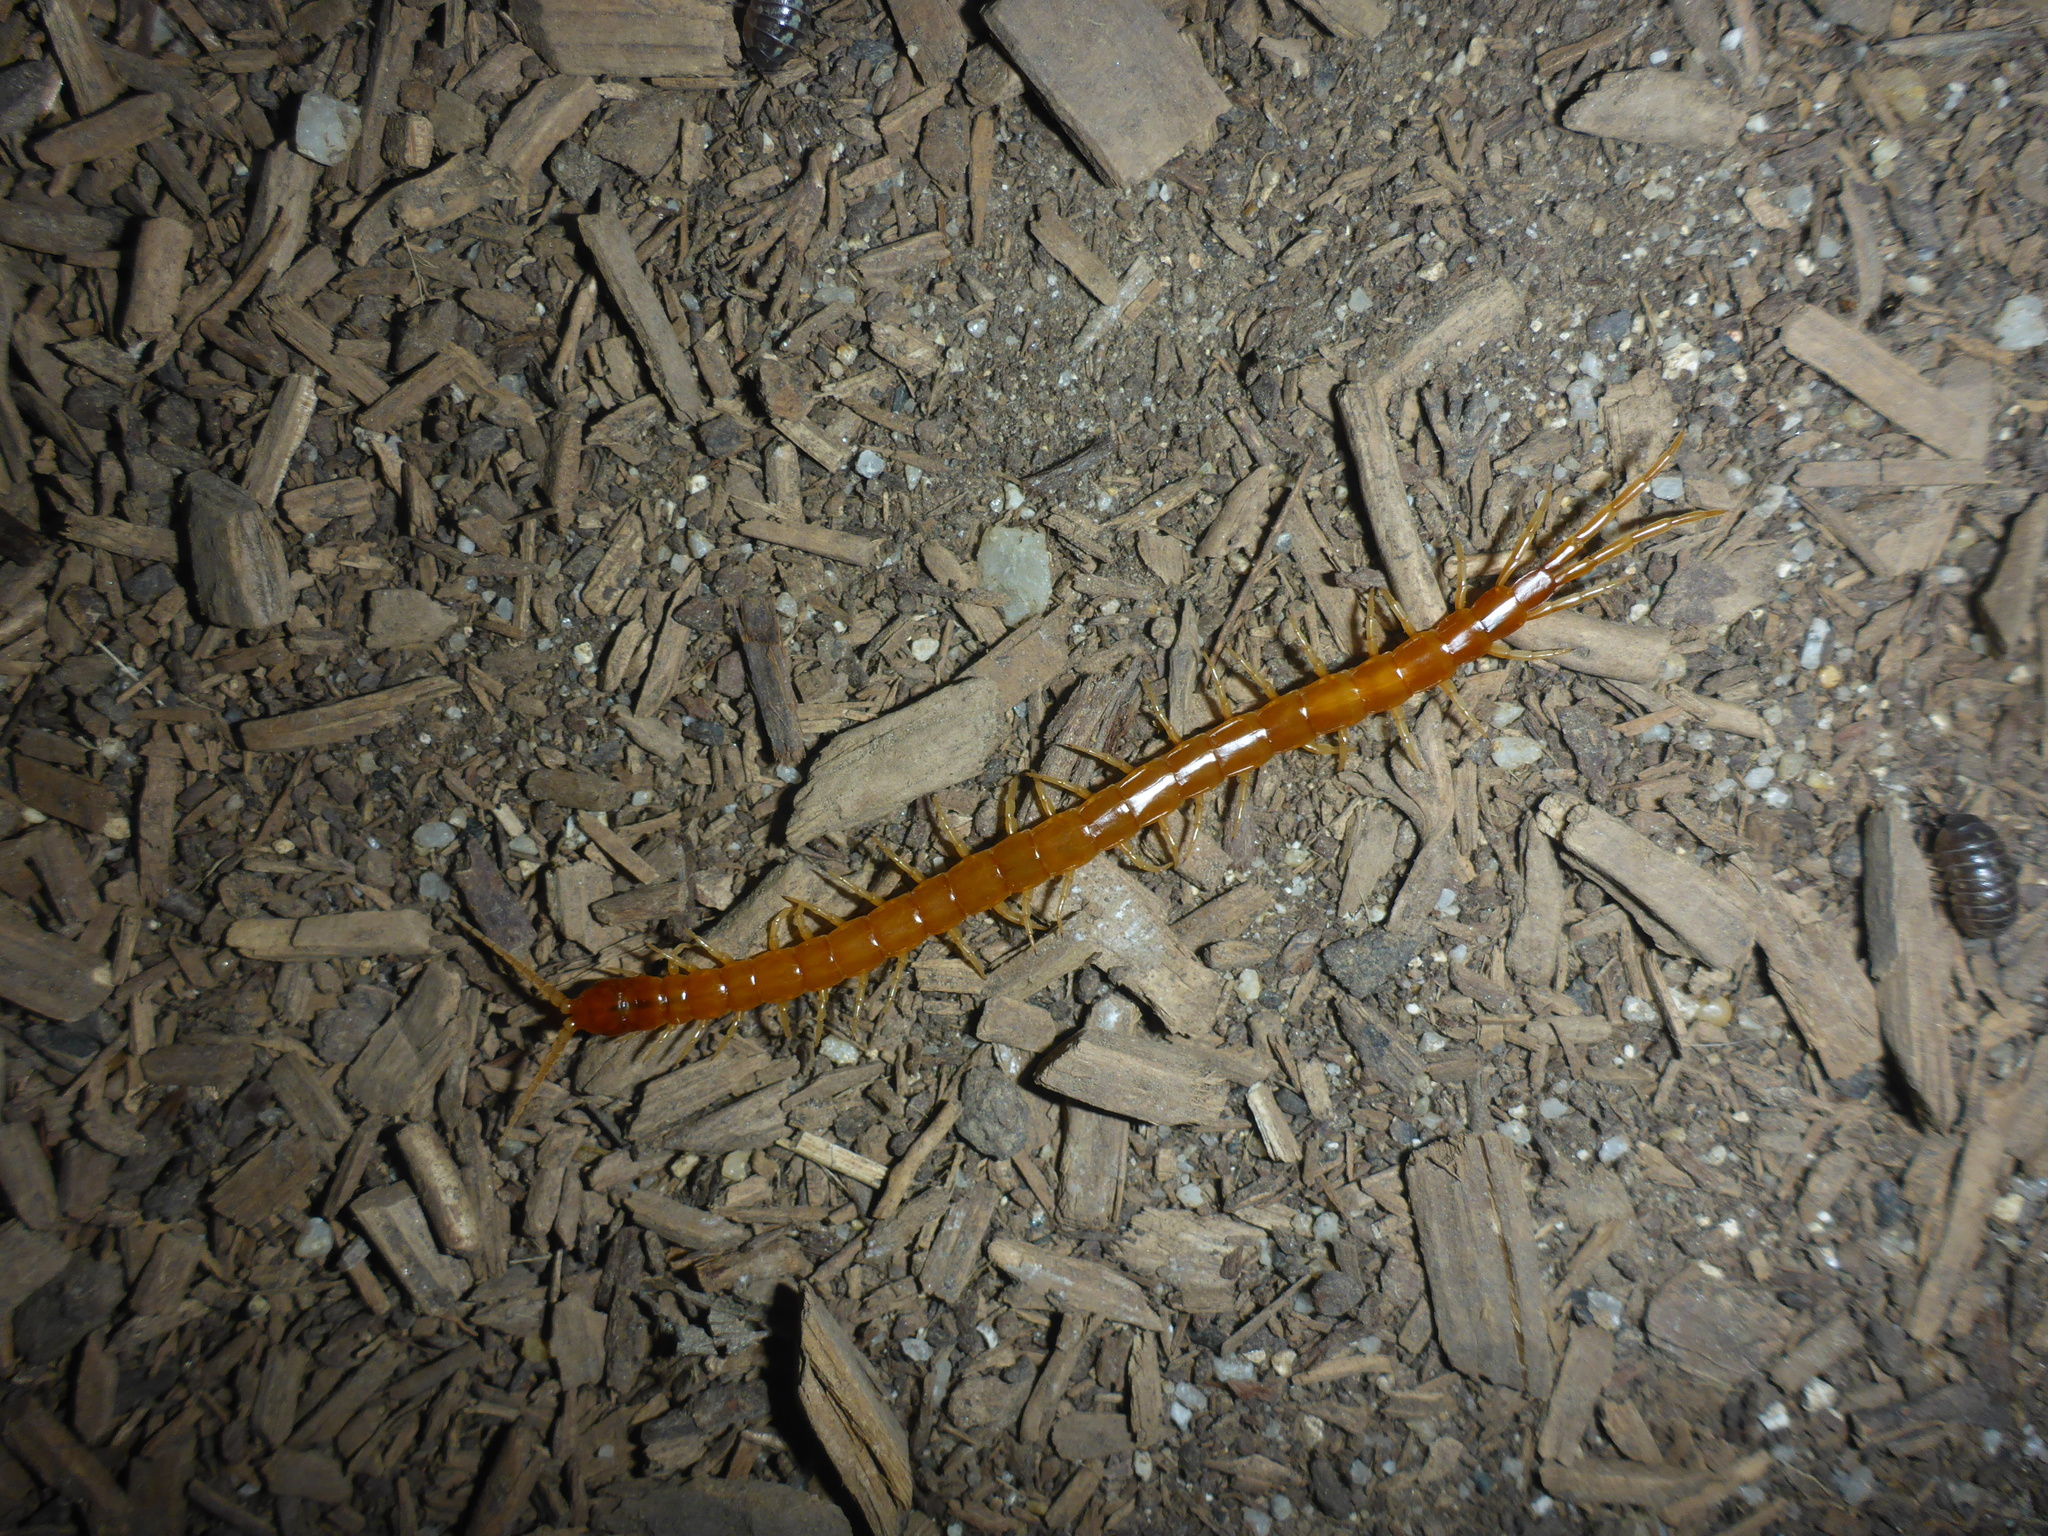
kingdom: Animalia
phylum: Arthropoda
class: Chilopoda
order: Scolopendromorpha
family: Scolopocryptopidae
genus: Scolopocryptops
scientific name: Scolopocryptops gracilis
